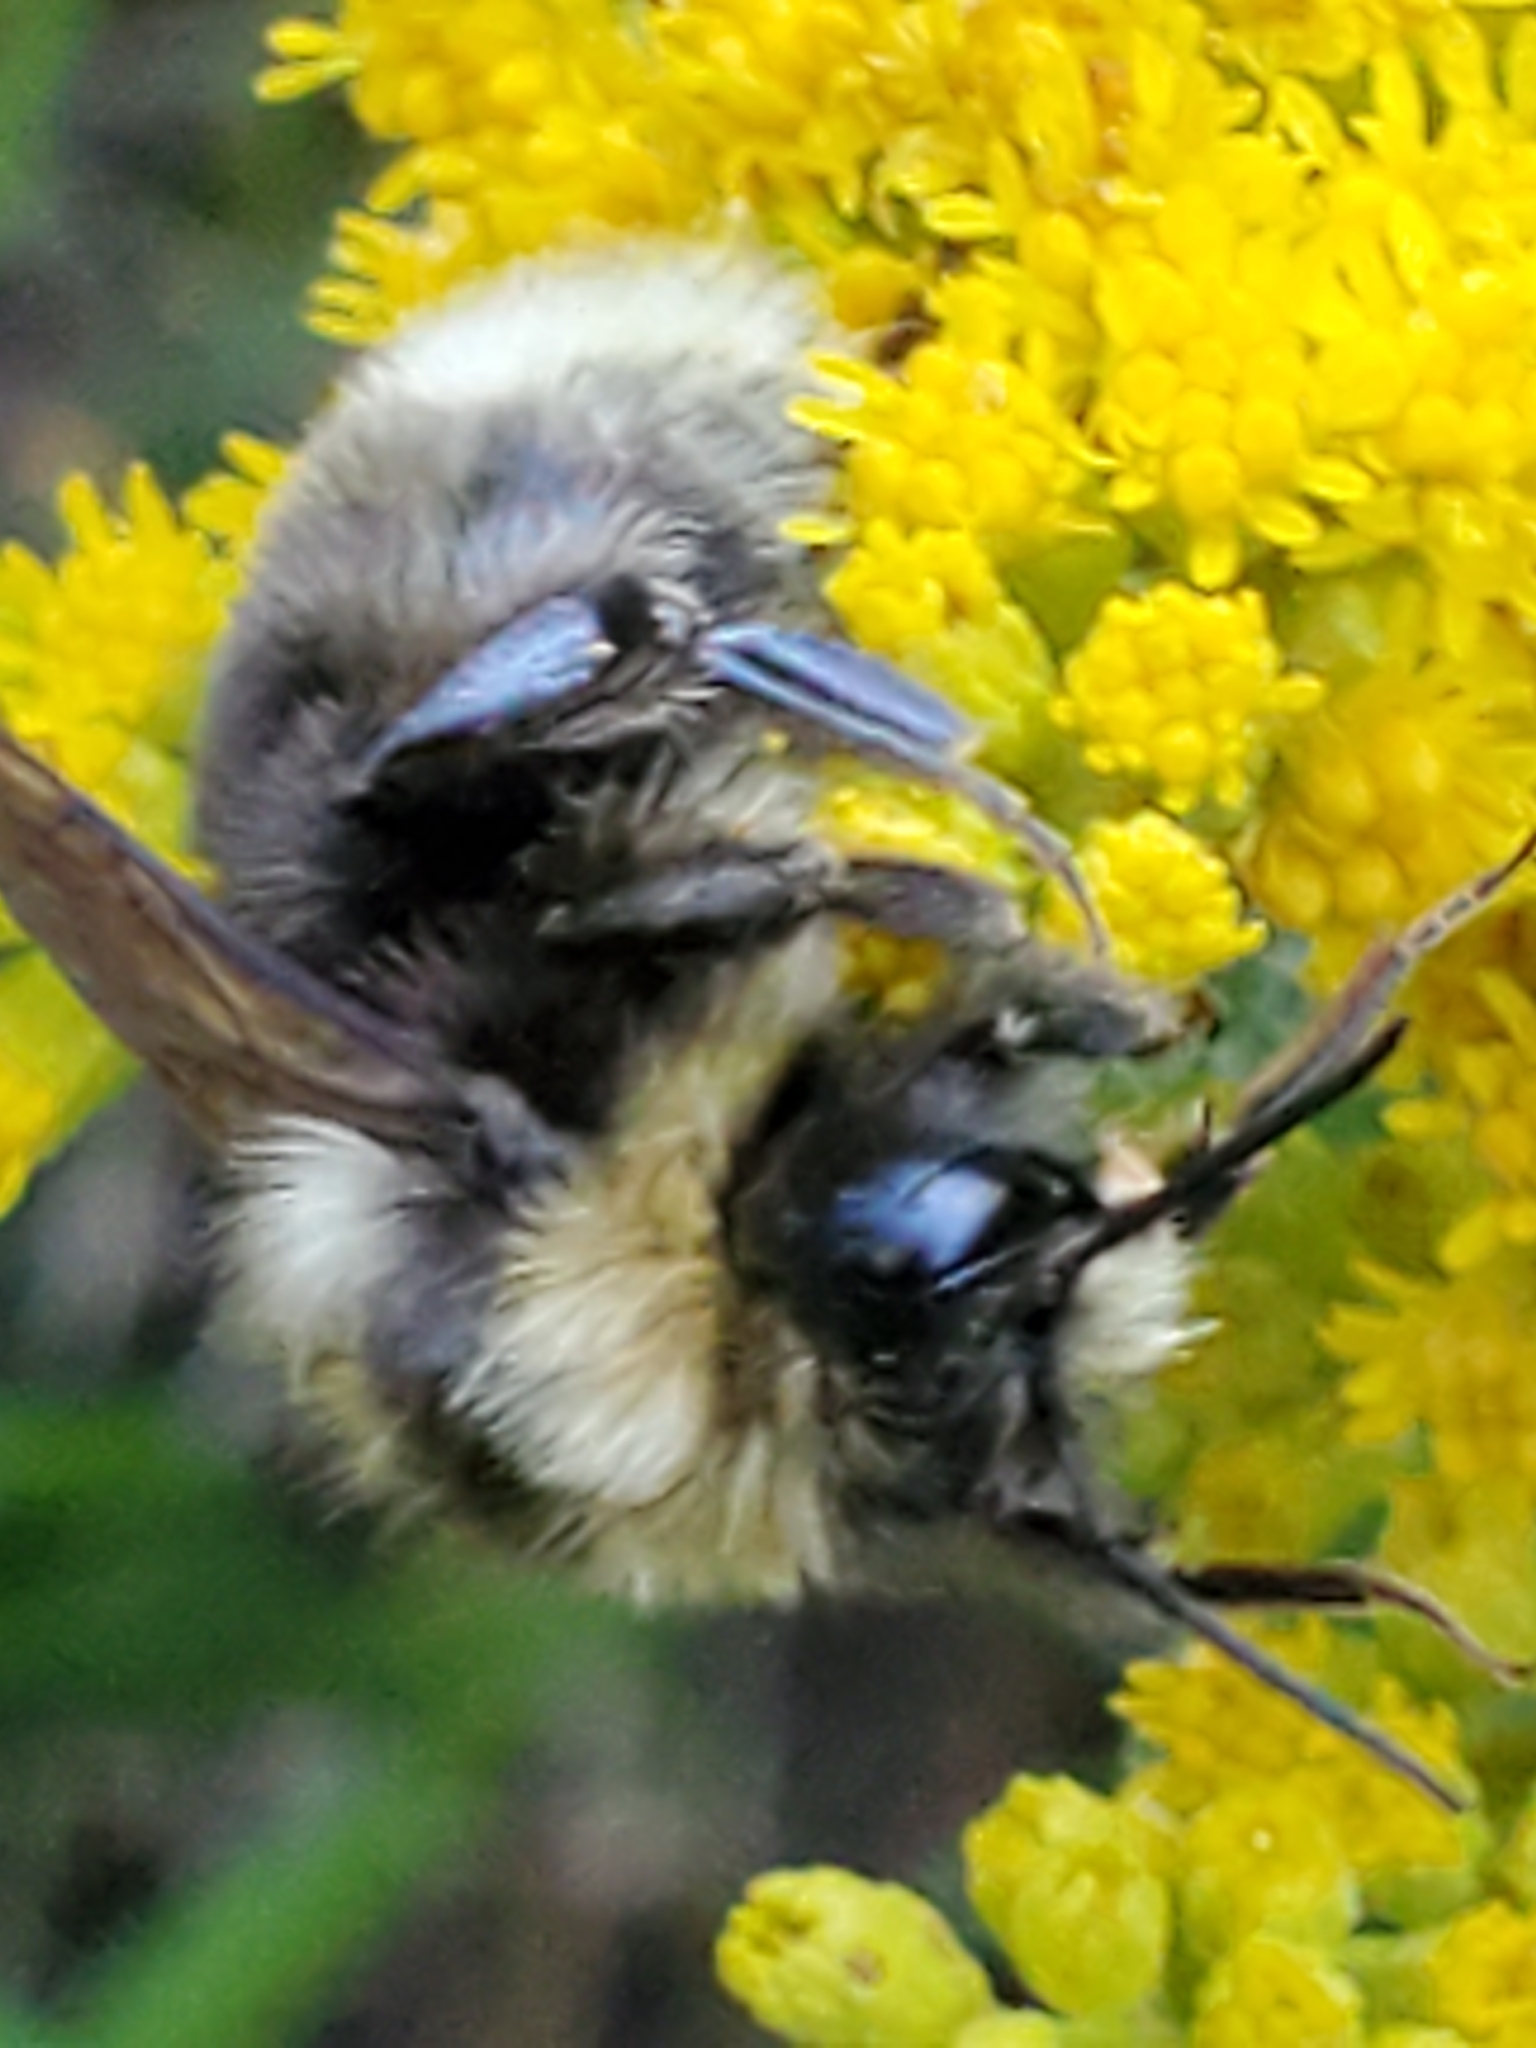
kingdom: Animalia
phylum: Arthropoda
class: Insecta
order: Hymenoptera
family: Apidae
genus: Bombus
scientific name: Bombus occidentalis
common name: Western bumble bee
